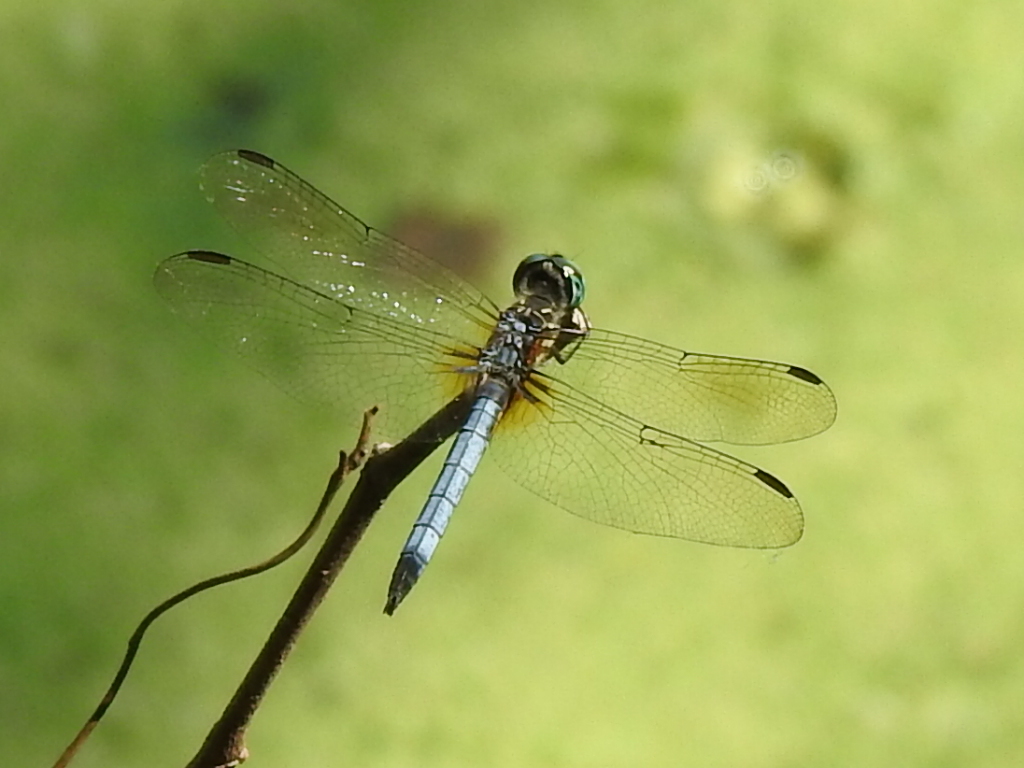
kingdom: Animalia
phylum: Arthropoda
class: Insecta
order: Odonata
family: Libellulidae
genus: Pachydiplax
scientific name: Pachydiplax longipennis
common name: Blue dasher
